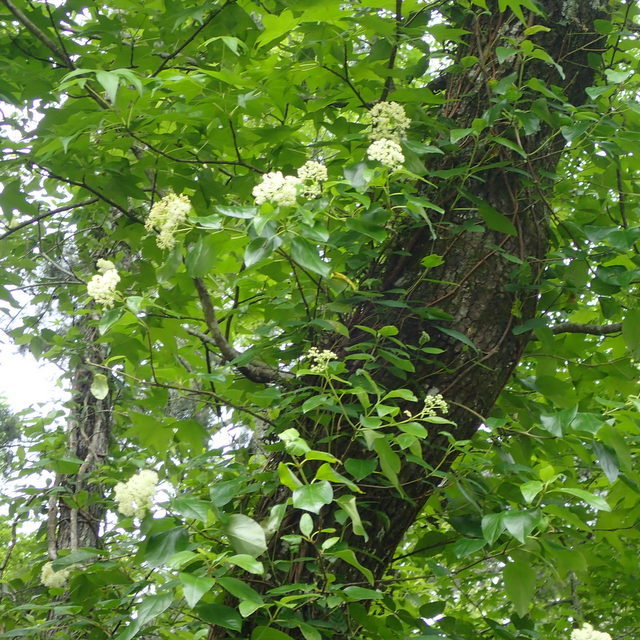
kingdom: Plantae
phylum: Tracheophyta
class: Magnoliopsida
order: Cornales
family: Hydrangeaceae
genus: Hydrangea
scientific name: Hydrangea barbara
